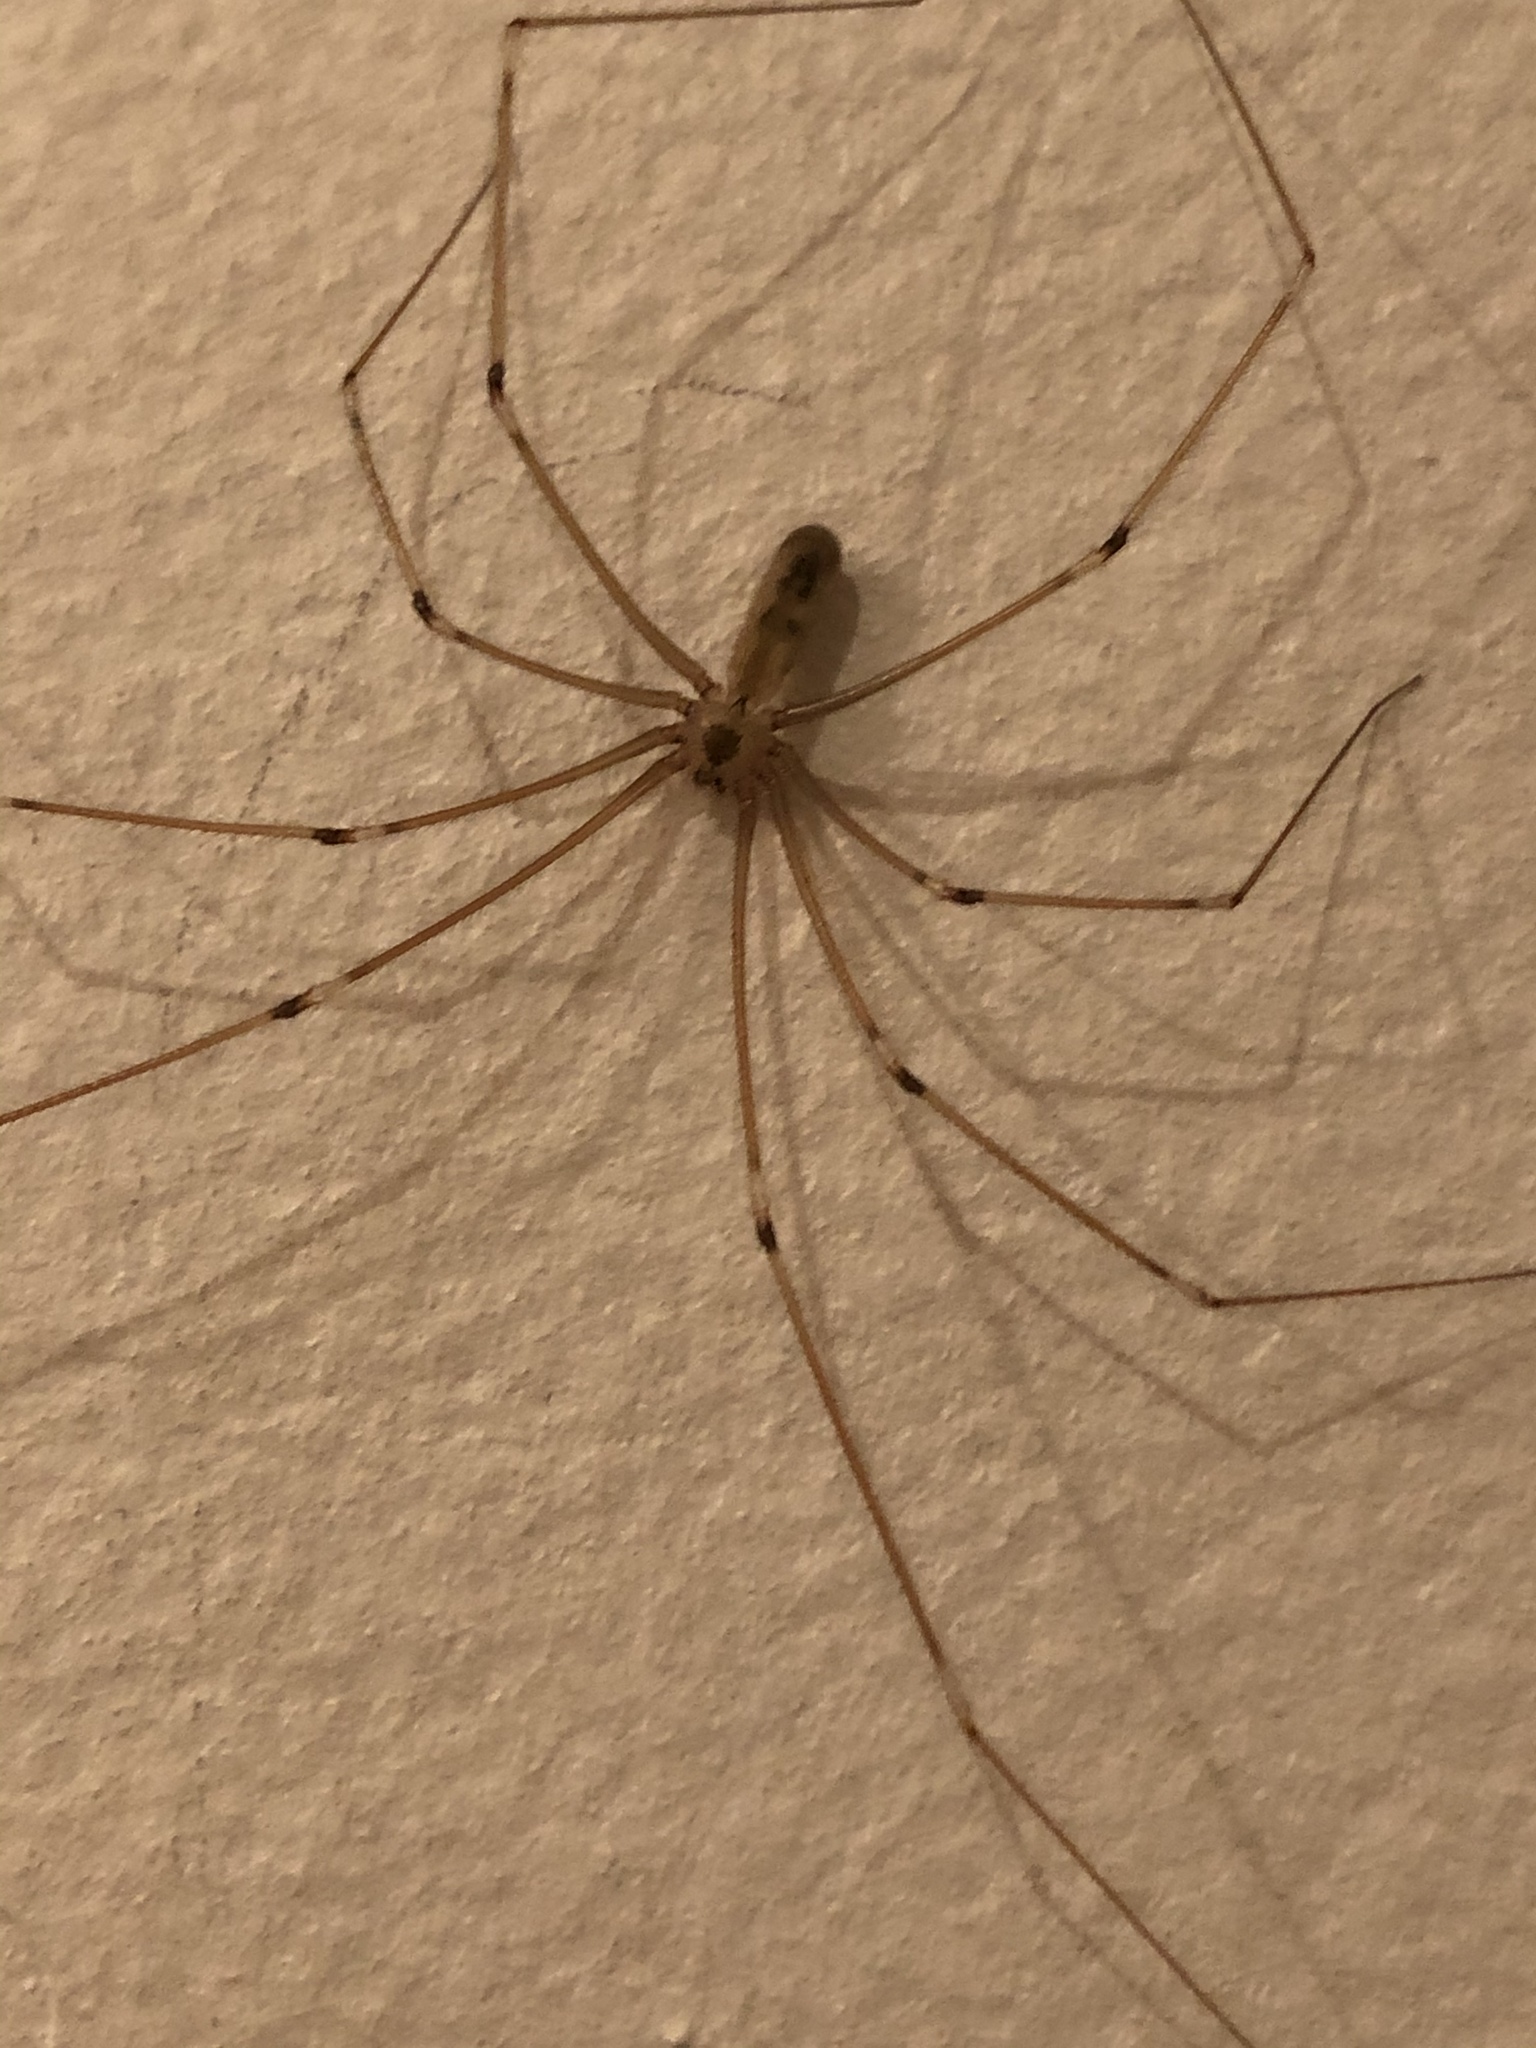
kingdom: Animalia
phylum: Arthropoda
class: Arachnida
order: Araneae
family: Pholcidae
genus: Pholcus
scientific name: Pholcus phalangioides
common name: Longbodied cellar spider
